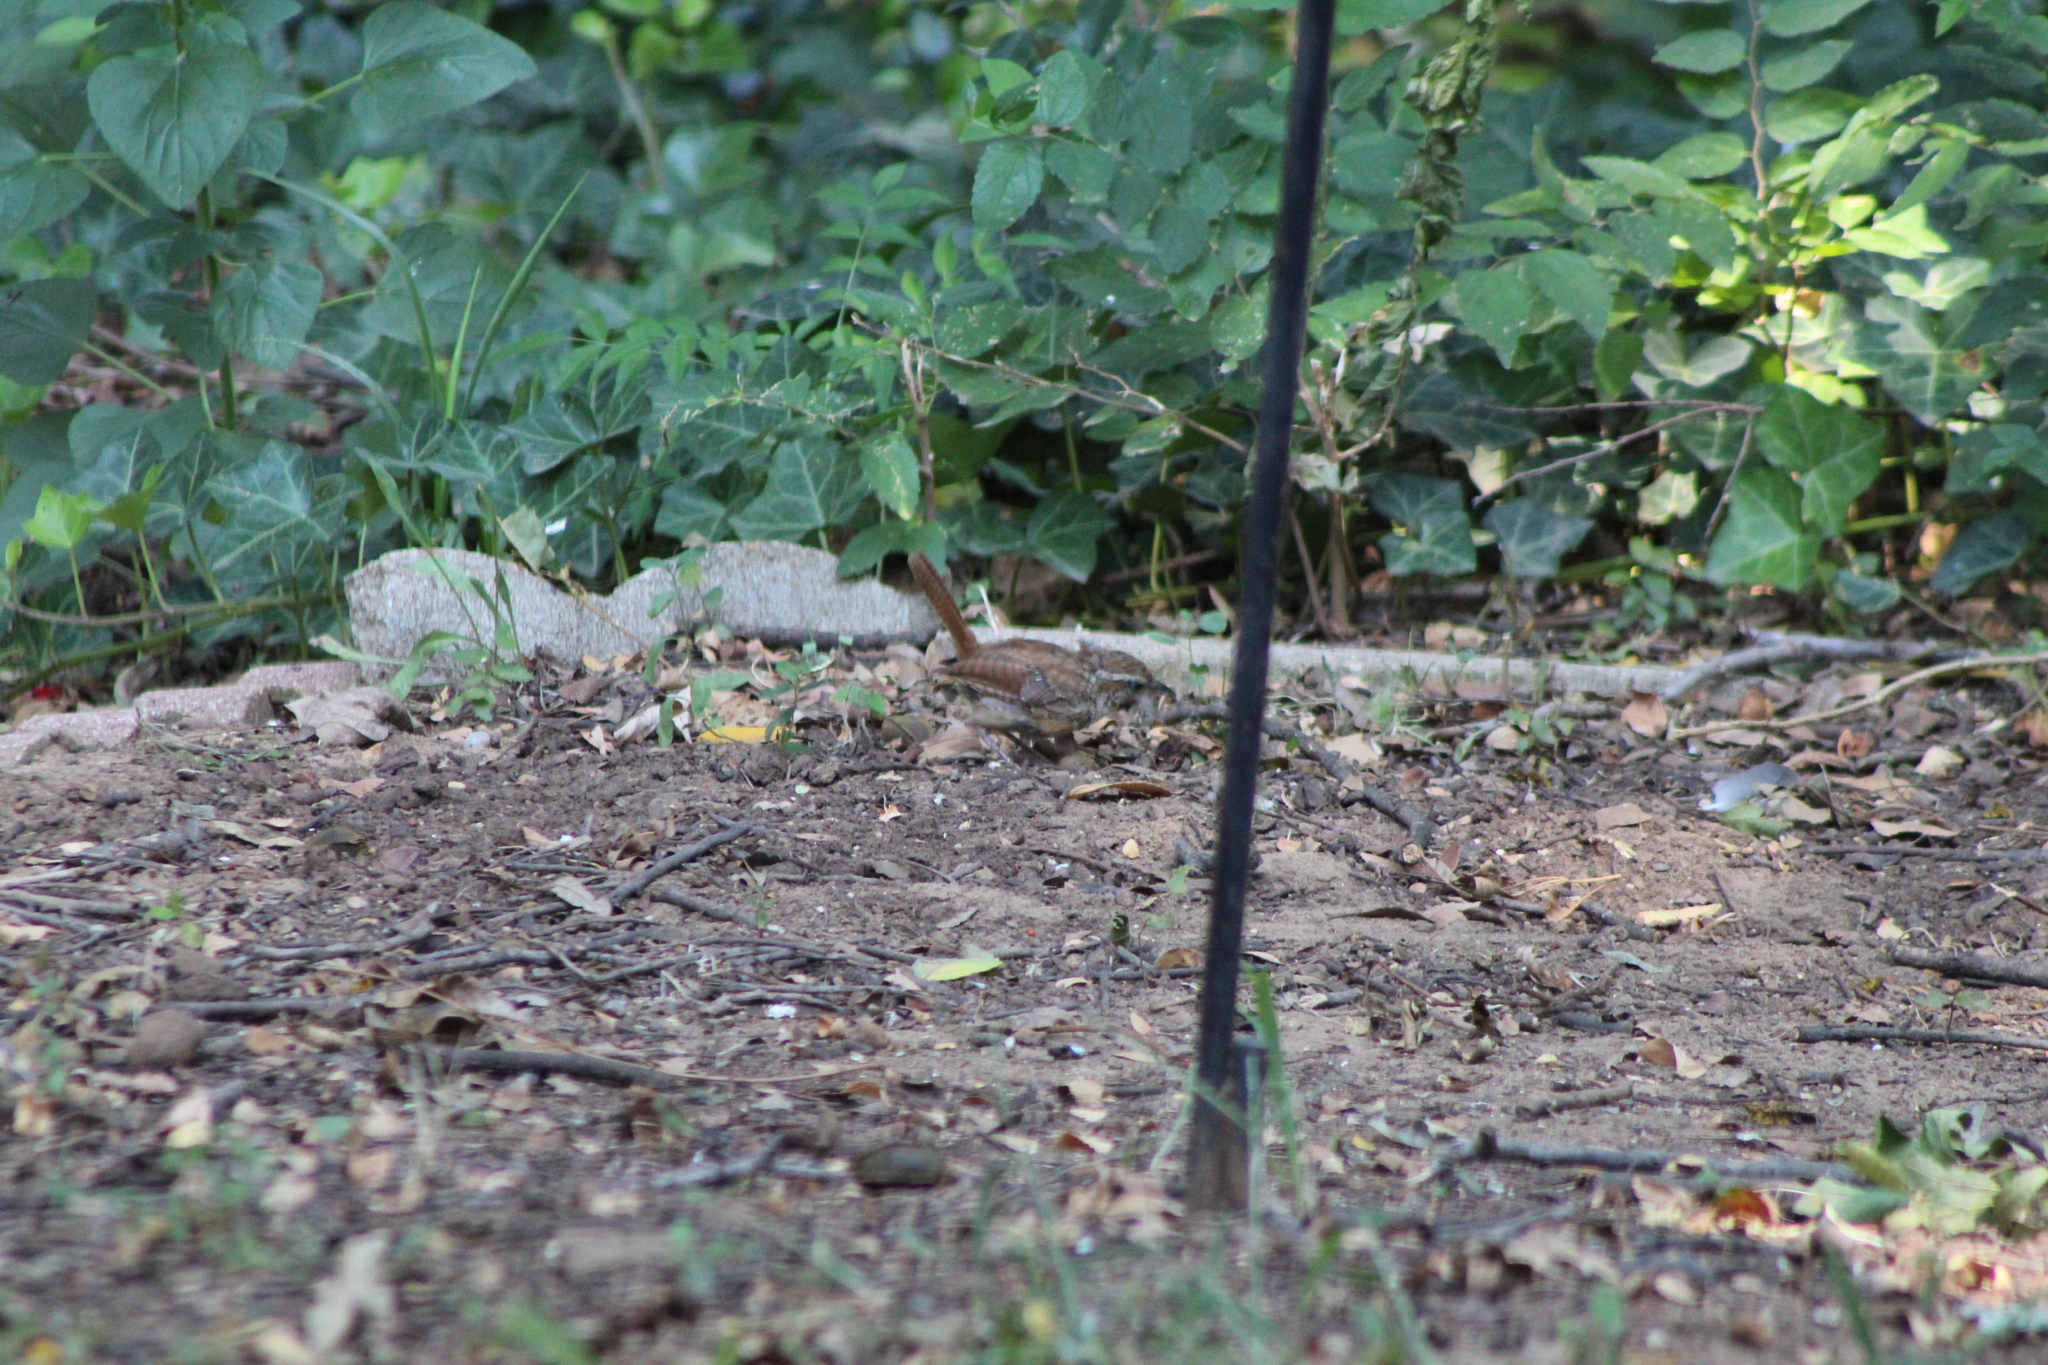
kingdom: Animalia
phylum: Chordata
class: Aves
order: Passeriformes
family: Troglodytidae
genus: Thryothorus
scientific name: Thryothorus ludovicianus
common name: Carolina wren
